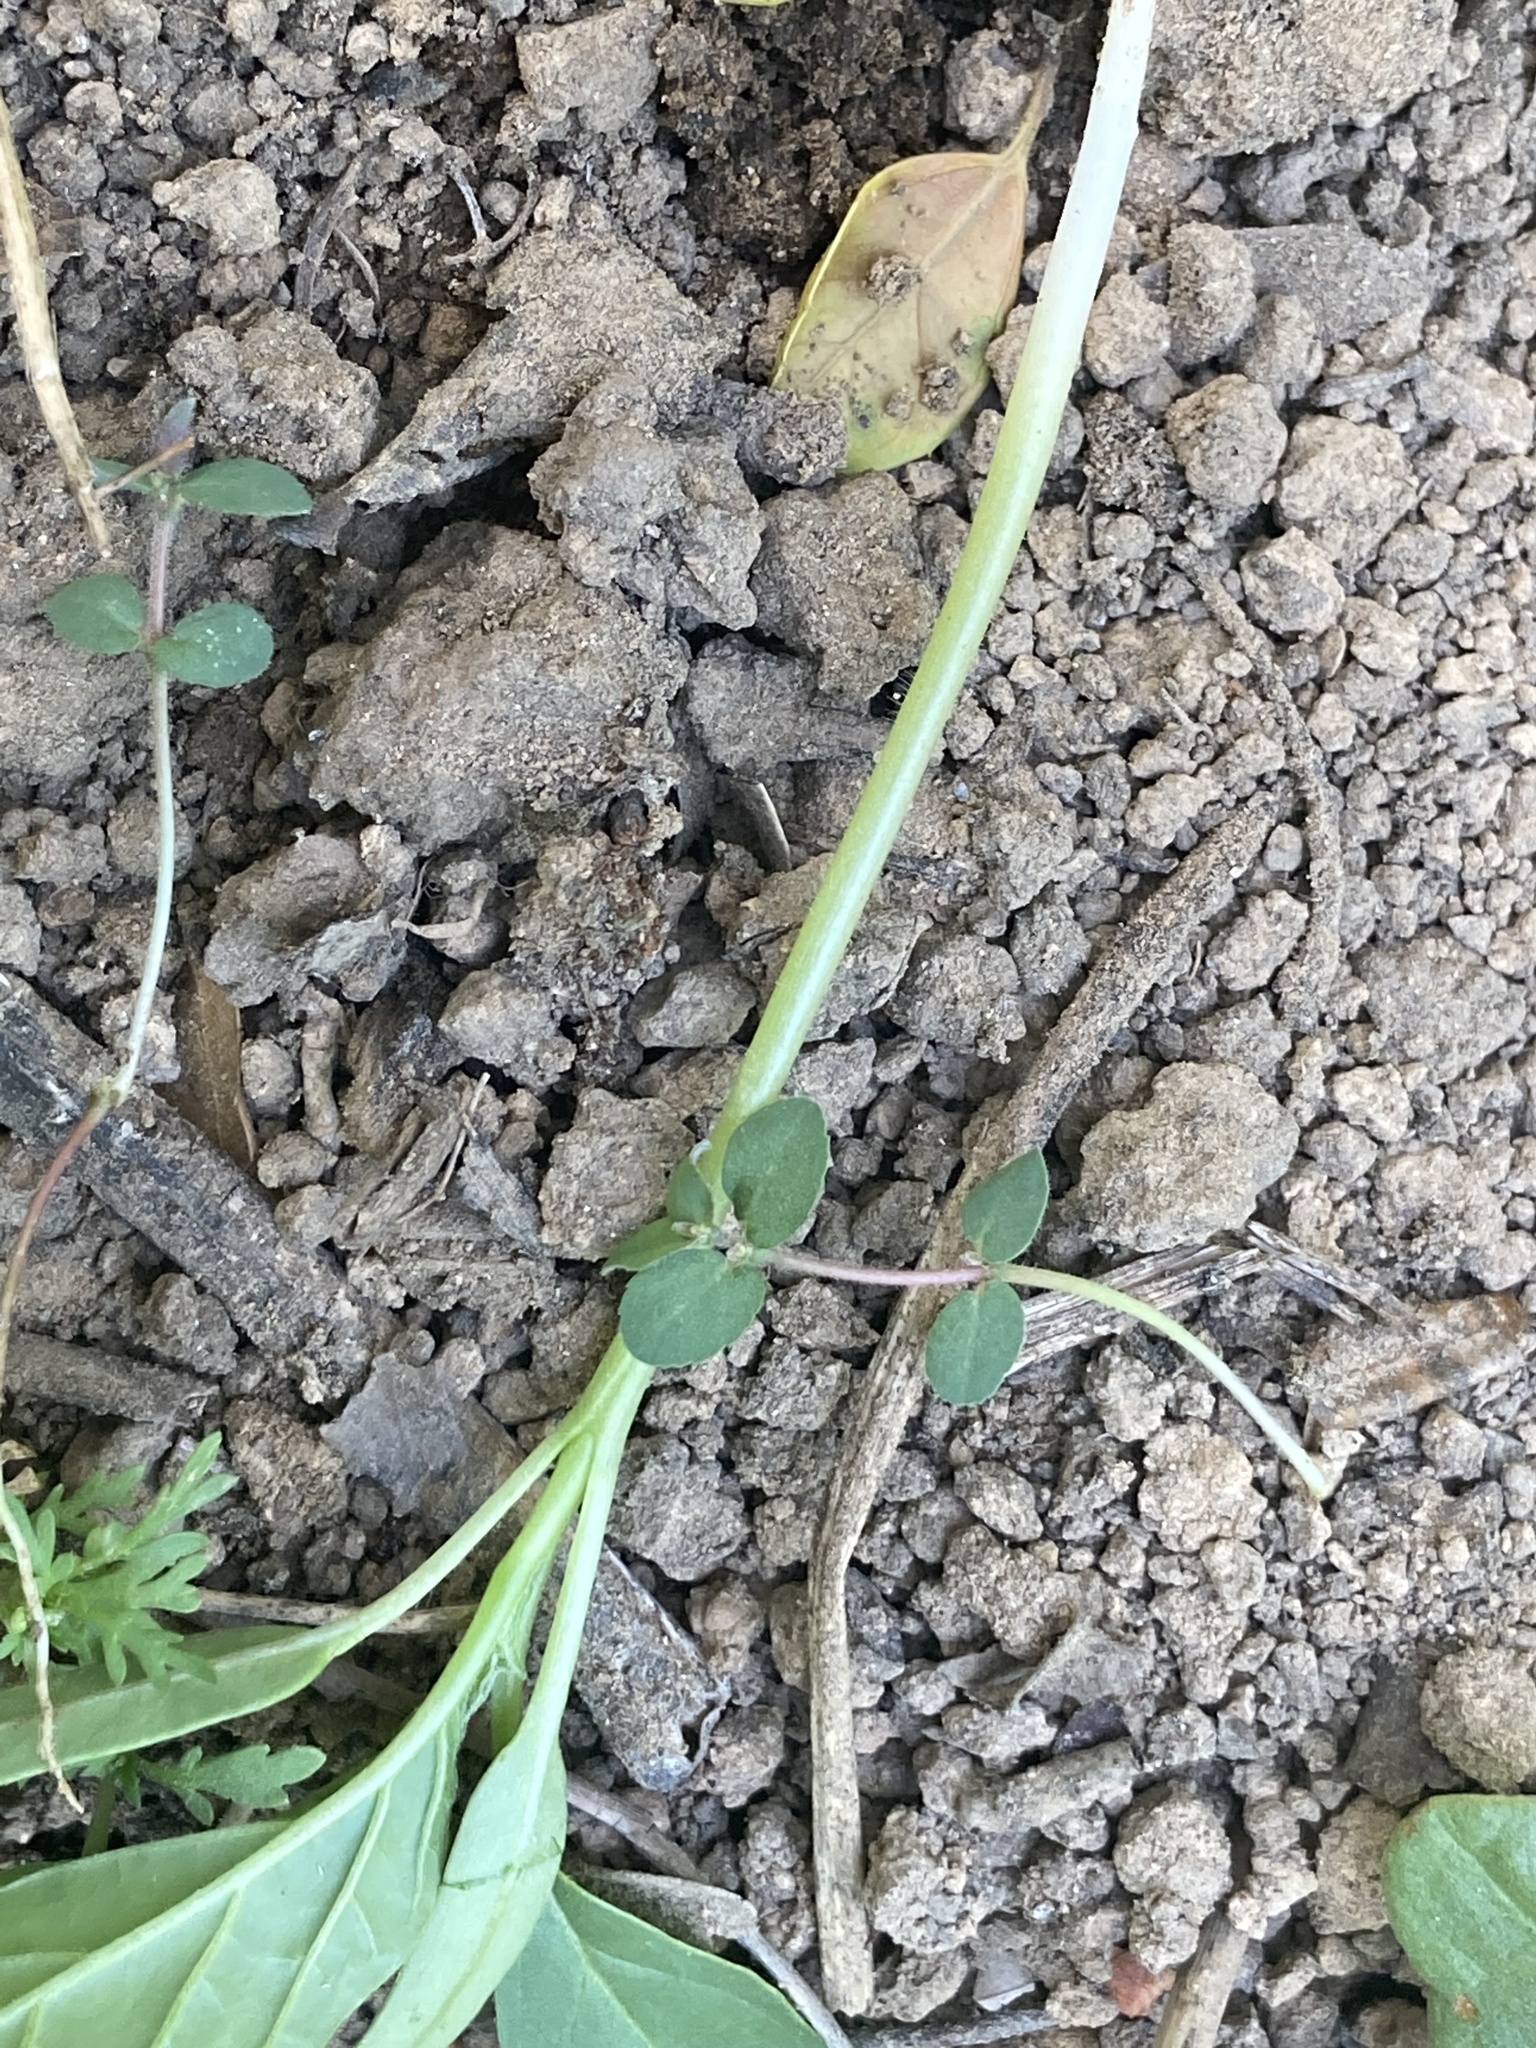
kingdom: Plantae
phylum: Tracheophyta
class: Magnoliopsida
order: Malpighiales
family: Euphorbiaceae
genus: Euphorbia
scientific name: Euphorbia prostrata
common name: Prostrate sandmat
